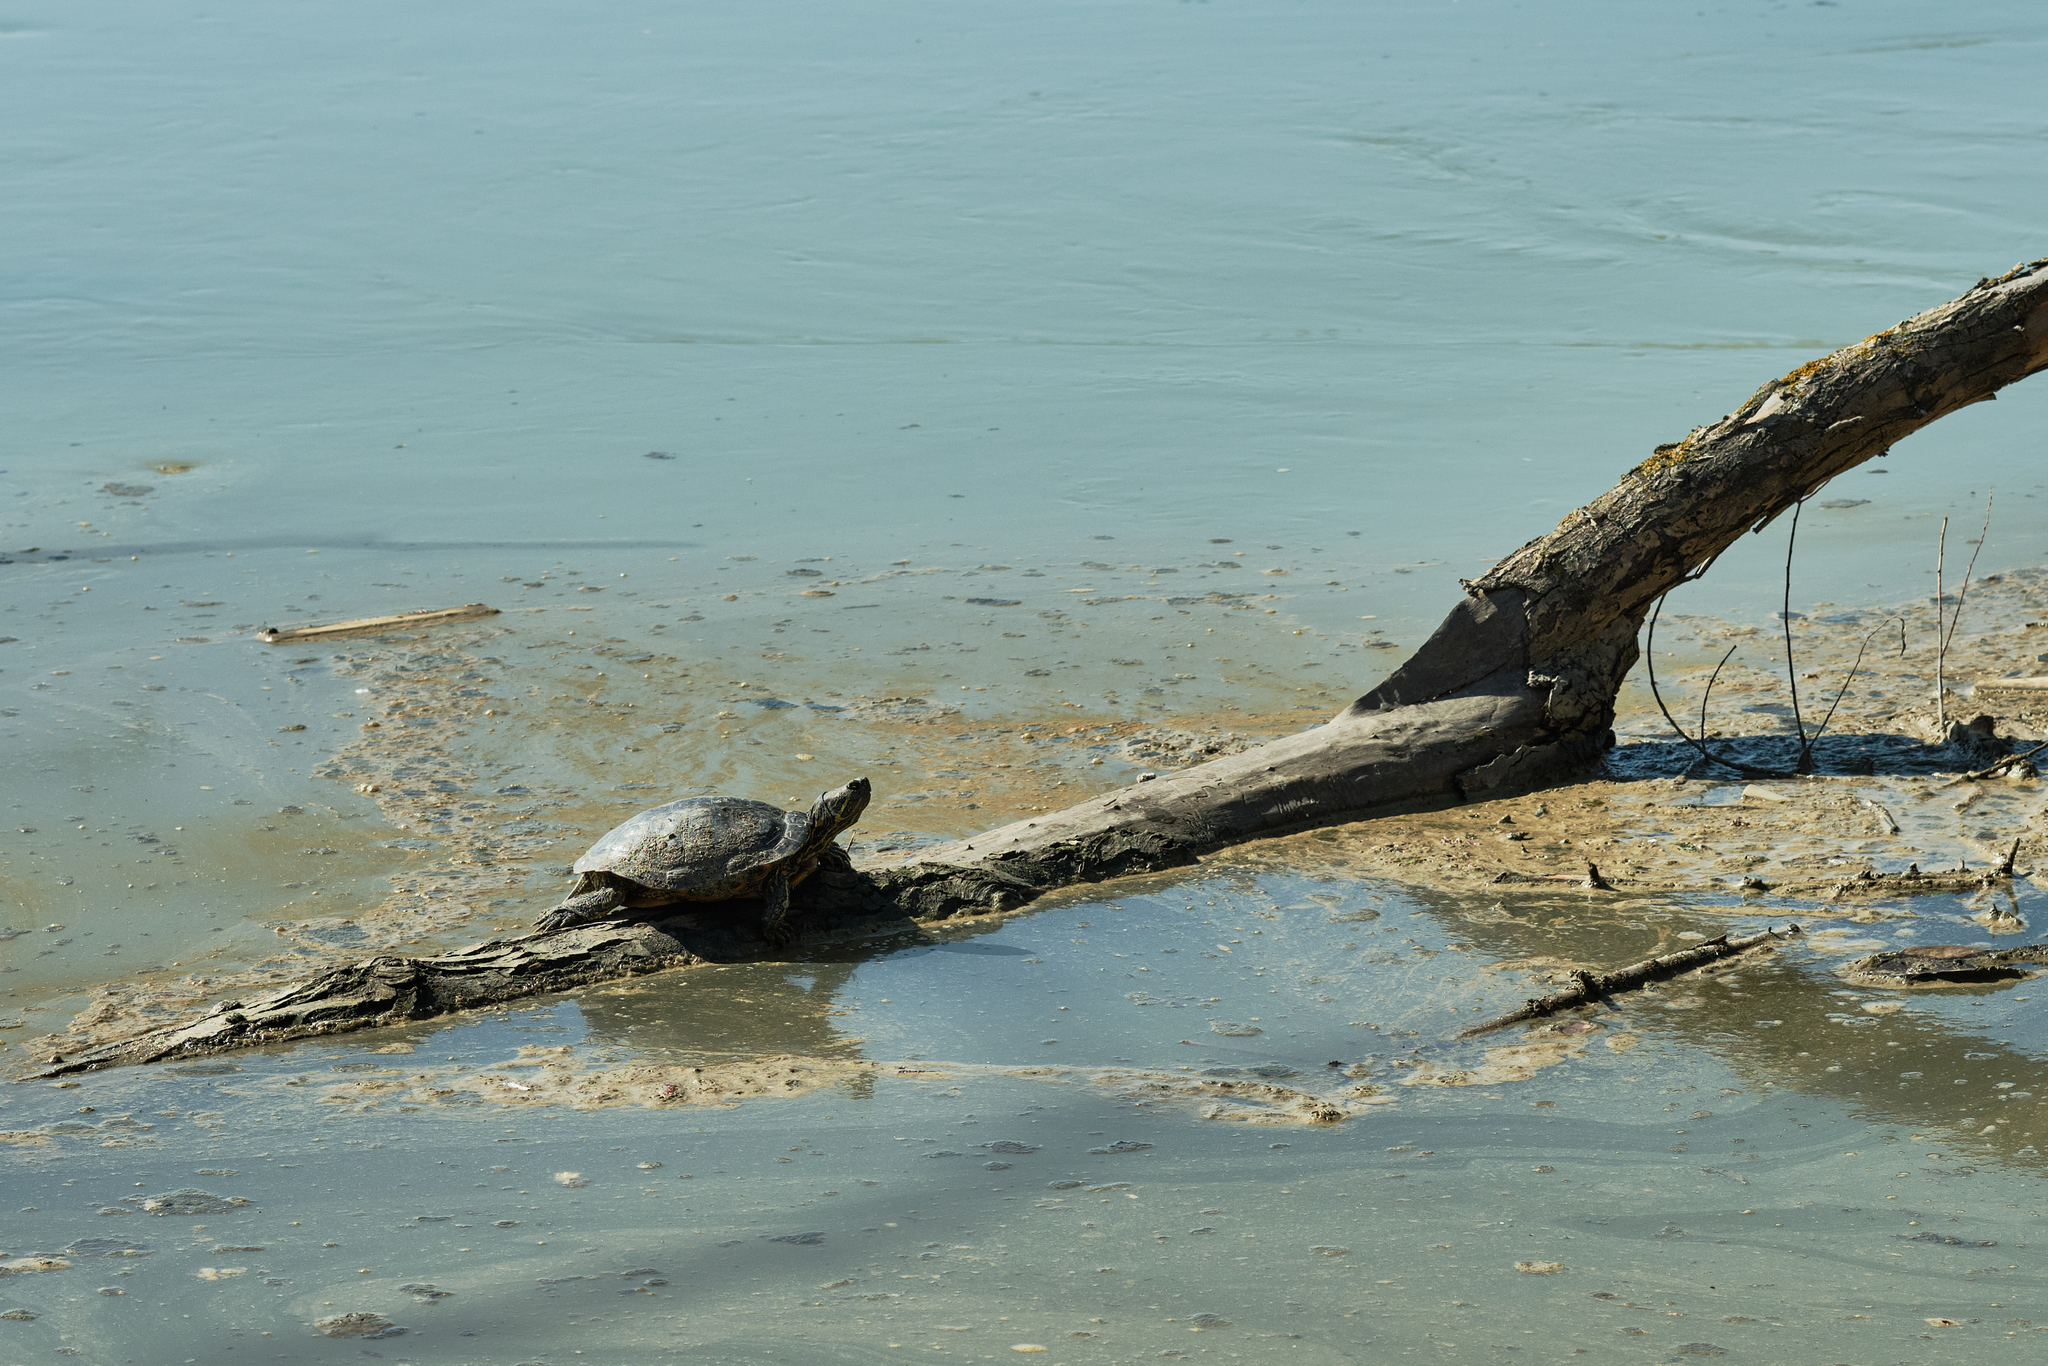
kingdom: Animalia
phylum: Chordata
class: Testudines
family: Emydidae
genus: Trachemys
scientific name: Trachemys scripta
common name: Slider
